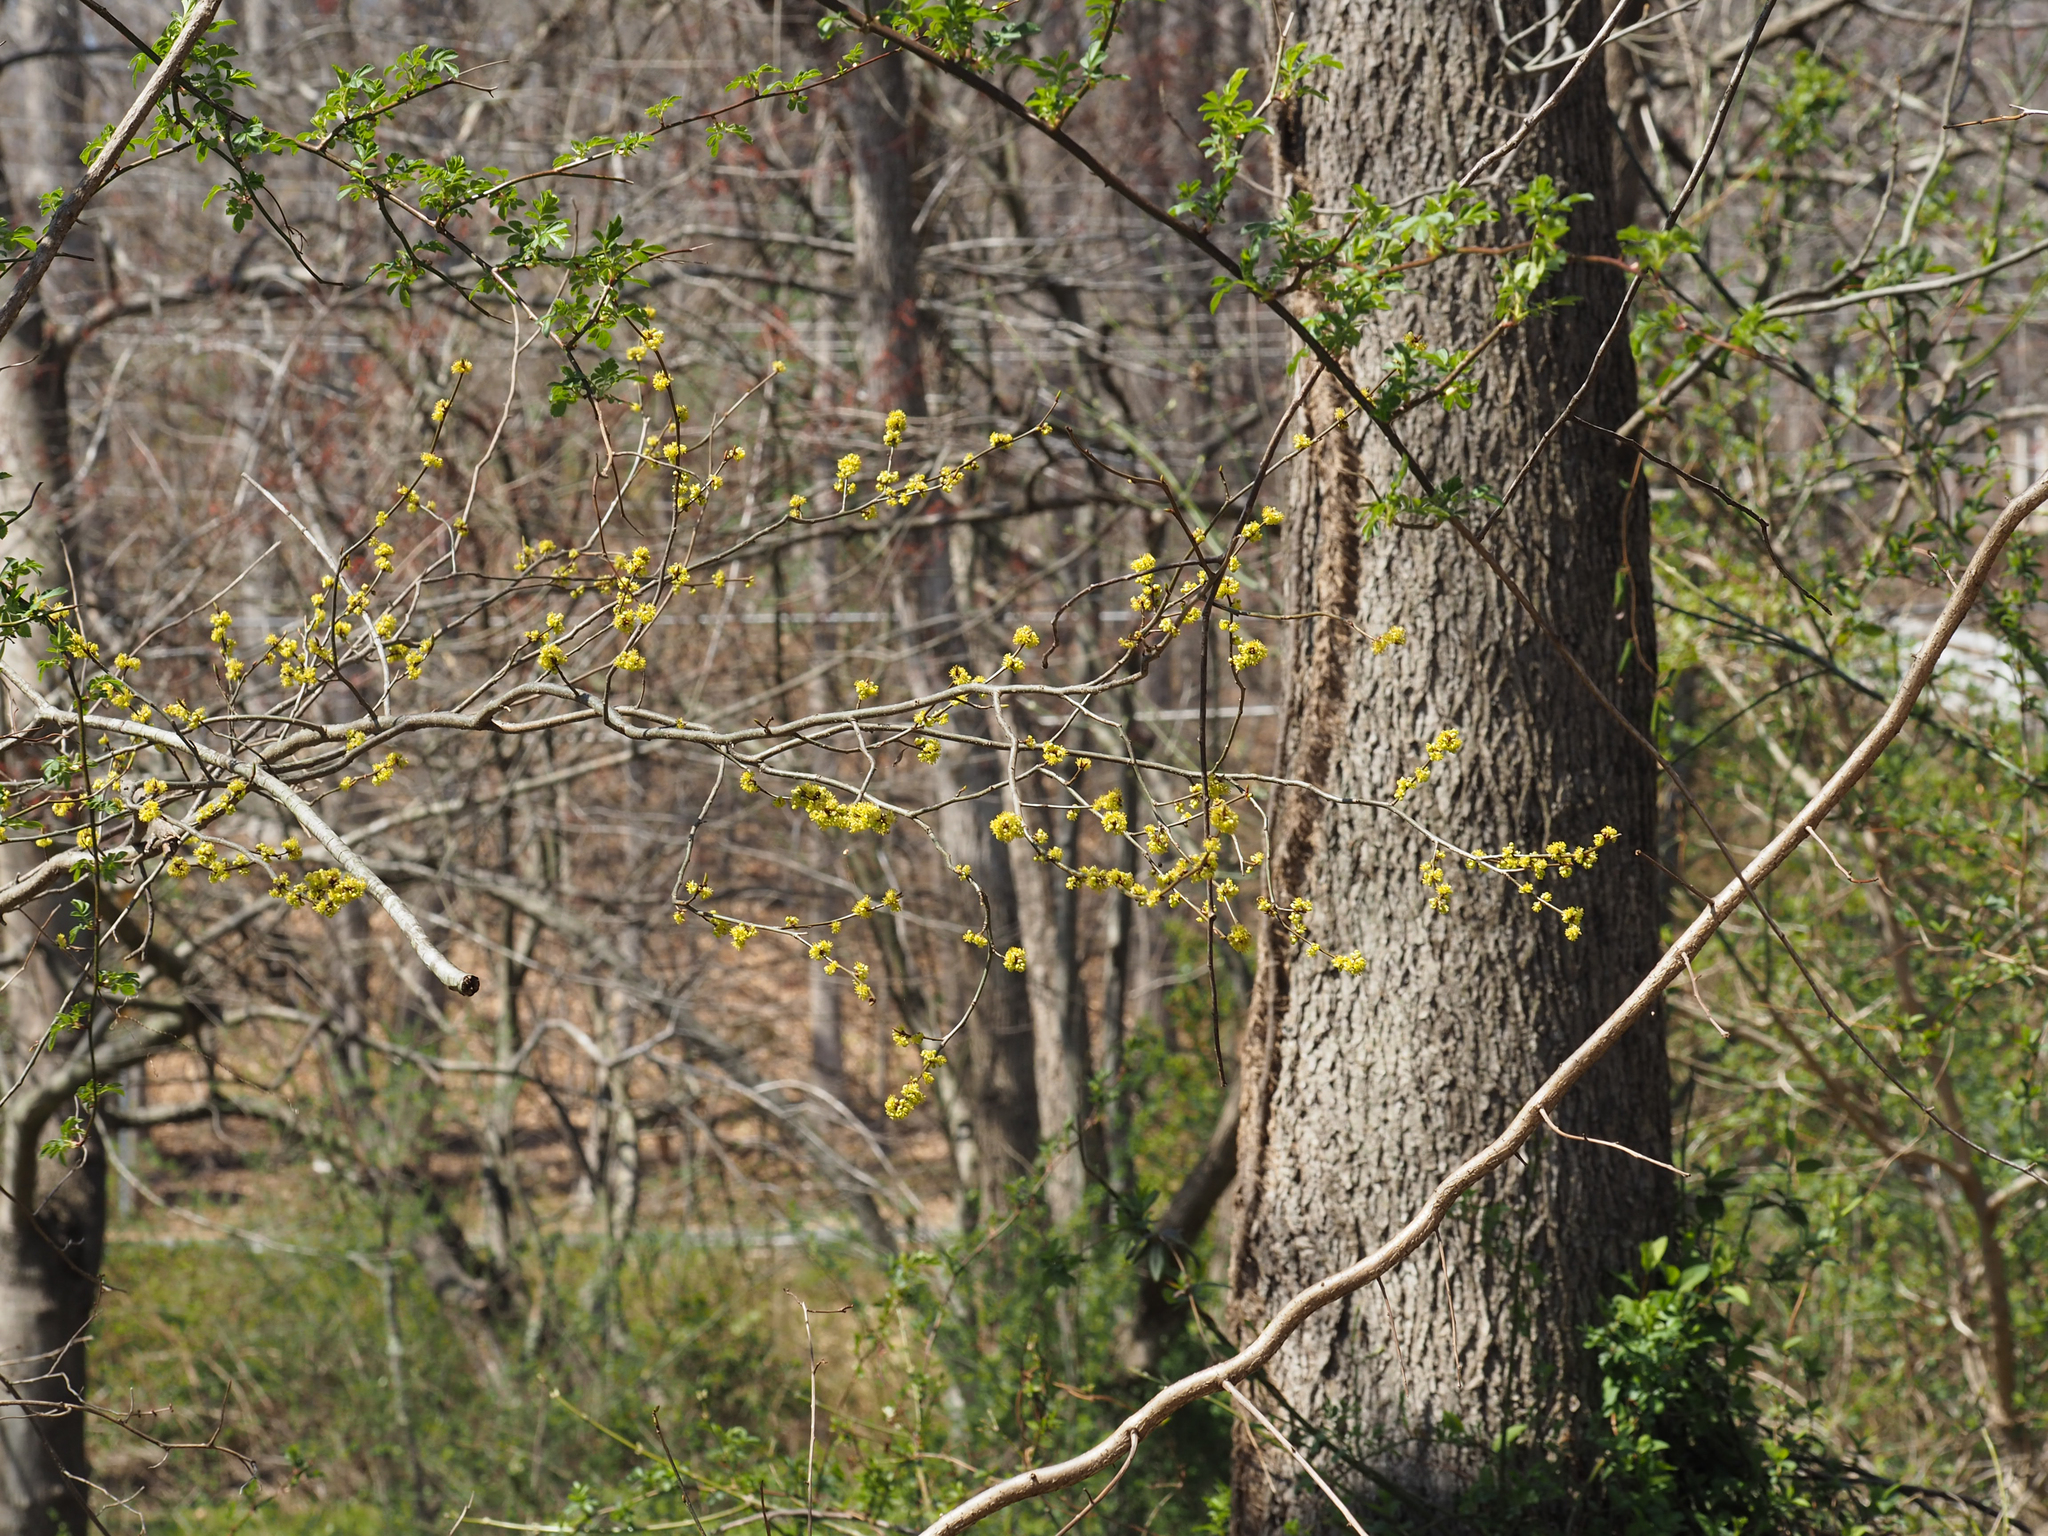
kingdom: Plantae
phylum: Tracheophyta
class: Magnoliopsida
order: Laurales
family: Lauraceae
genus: Lindera
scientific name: Lindera benzoin
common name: Spicebush
